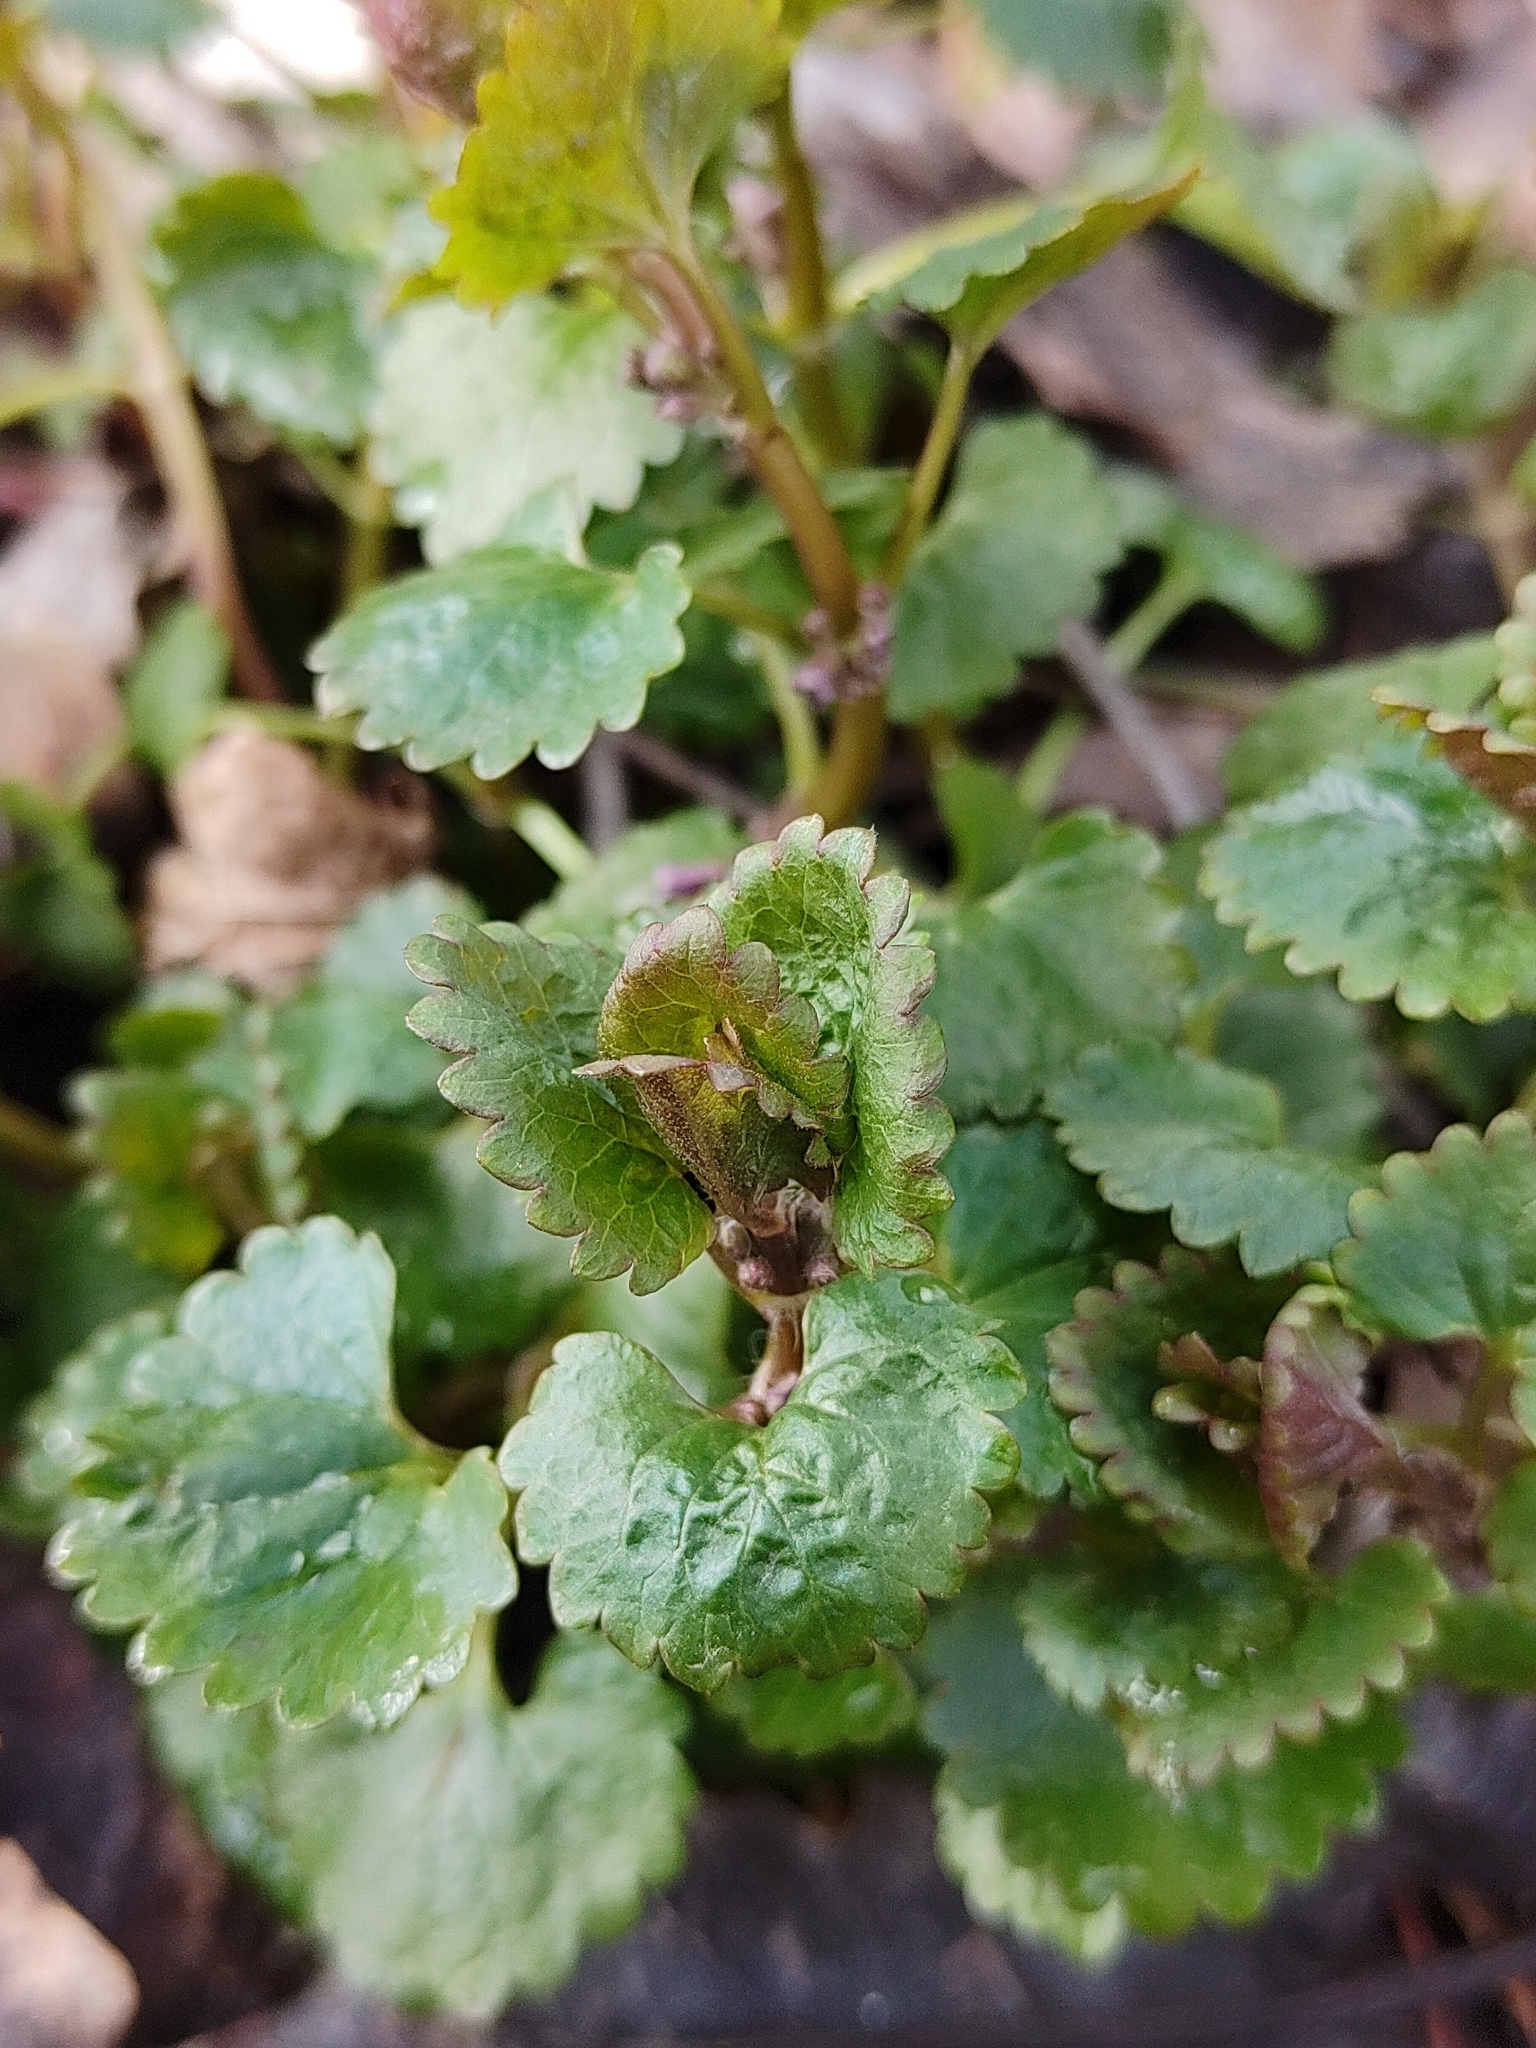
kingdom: Plantae
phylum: Tracheophyta
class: Magnoliopsida
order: Lamiales
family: Lamiaceae
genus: Glechoma
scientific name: Glechoma hederacea
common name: Ground ivy
